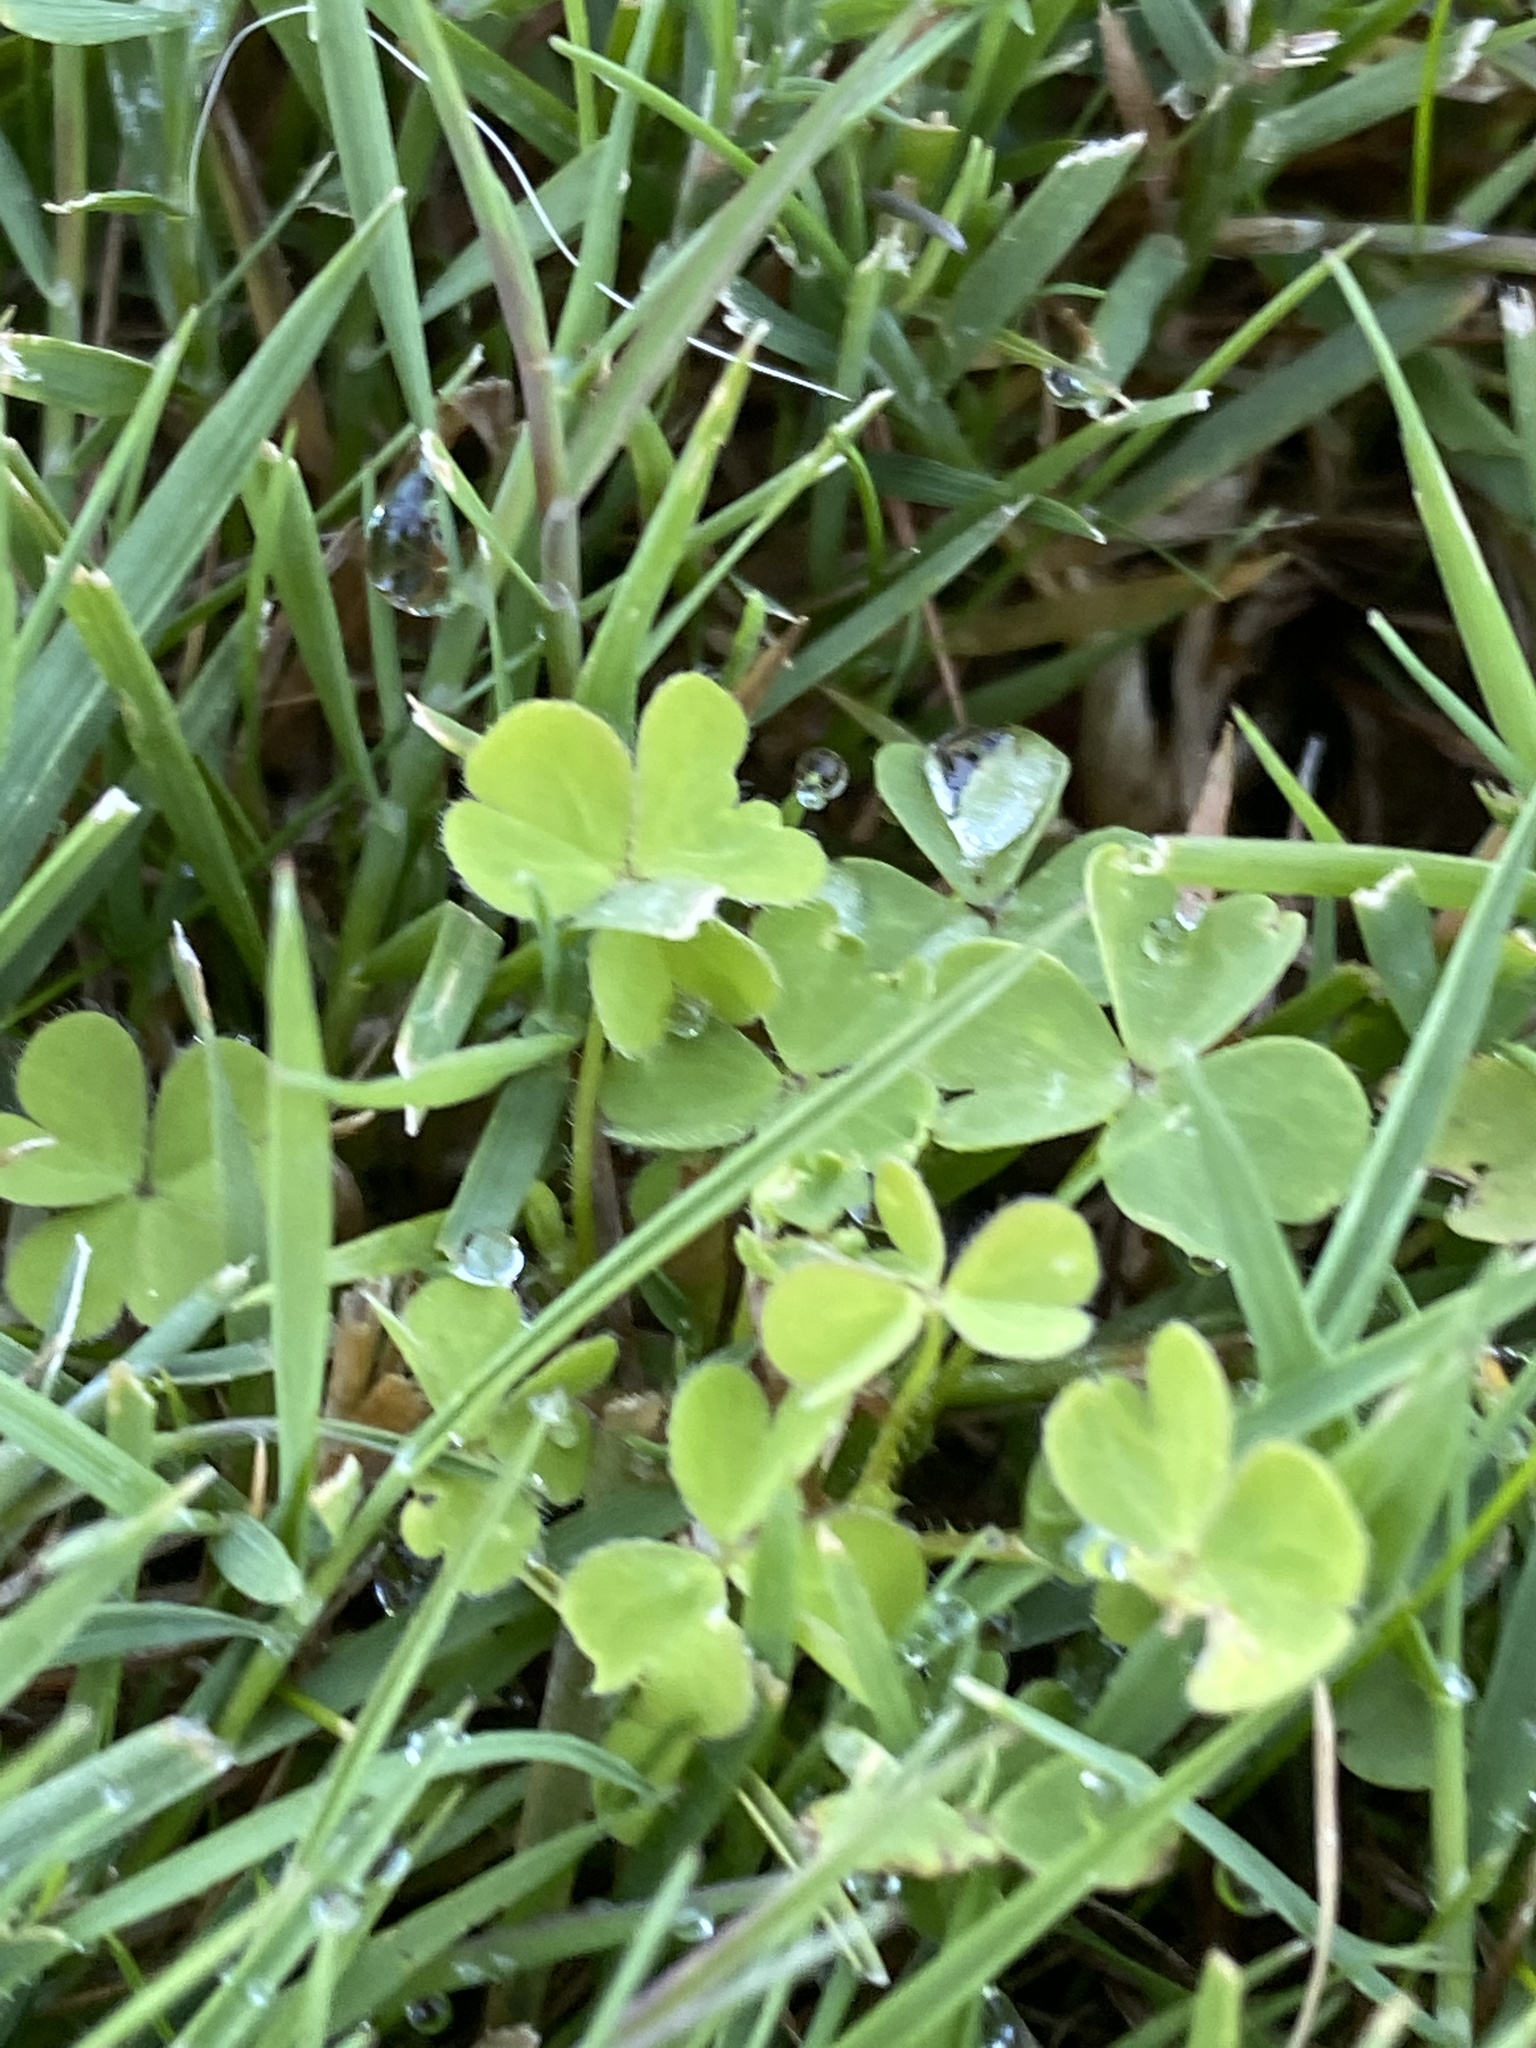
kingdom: Plantae
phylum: Tracheophyta
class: Magnoliopsida
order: Oxalidales
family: Oxalidaceae
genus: Oxalis
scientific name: Oxalis corniculata
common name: Procumbent yellow-sorrel
